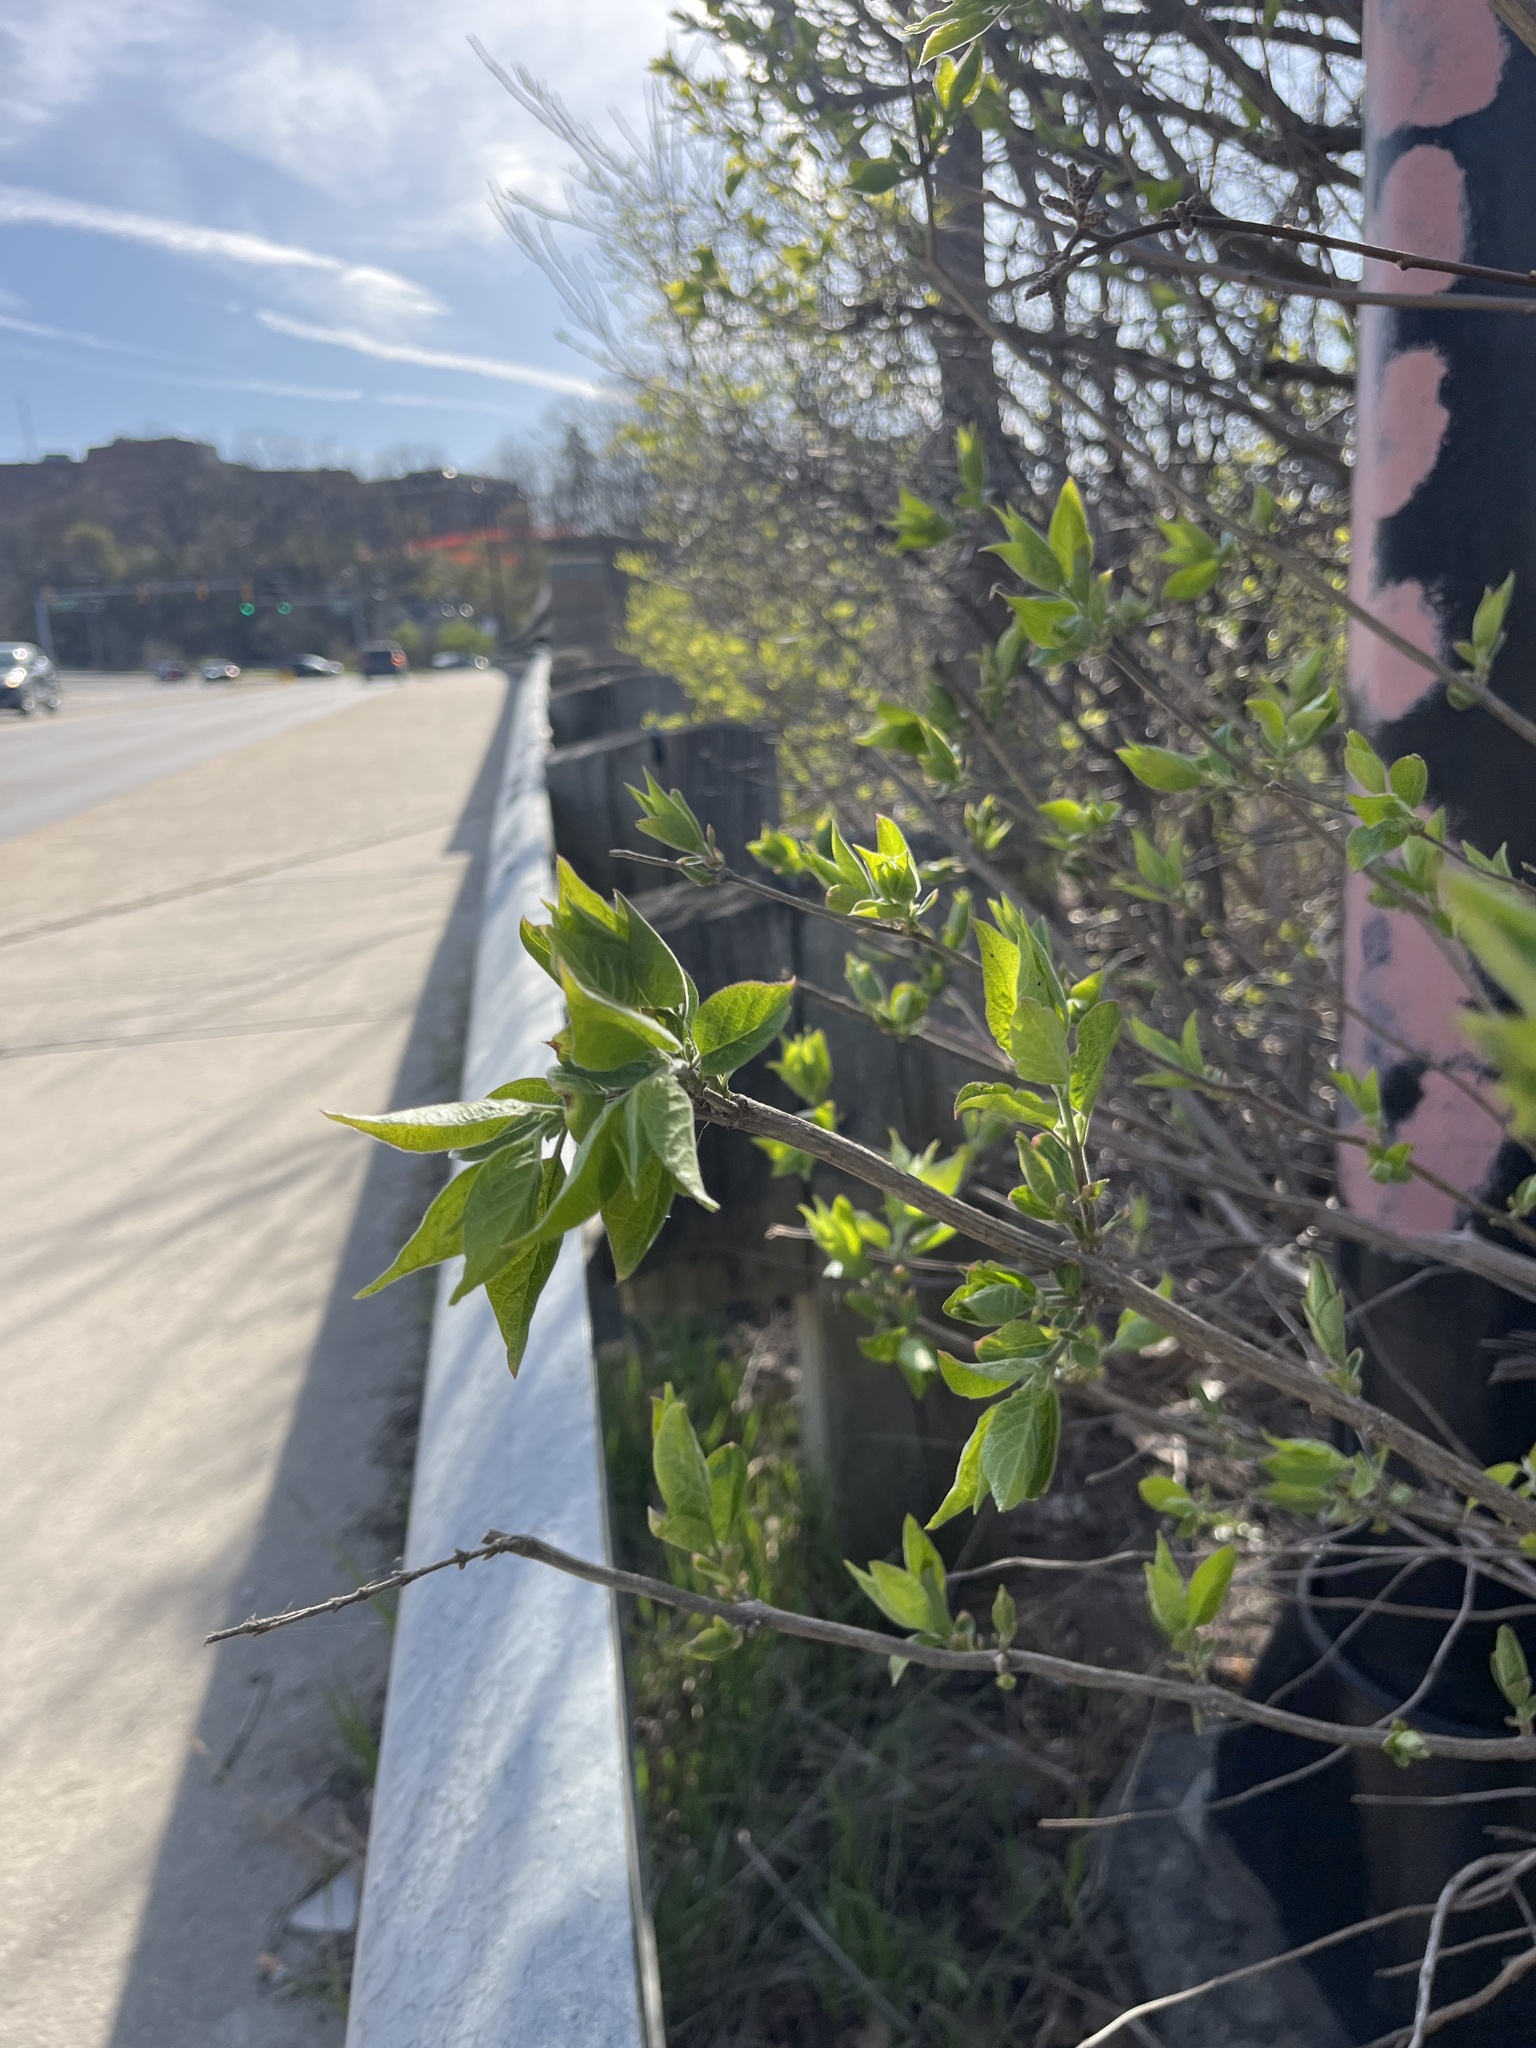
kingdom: Plantae
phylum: Tracheophyta
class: Magnoliopsida
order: Dipsacales
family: Caprifoliaceae
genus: Lonicera
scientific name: Lonicera maackii
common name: Amur honeysuckle
